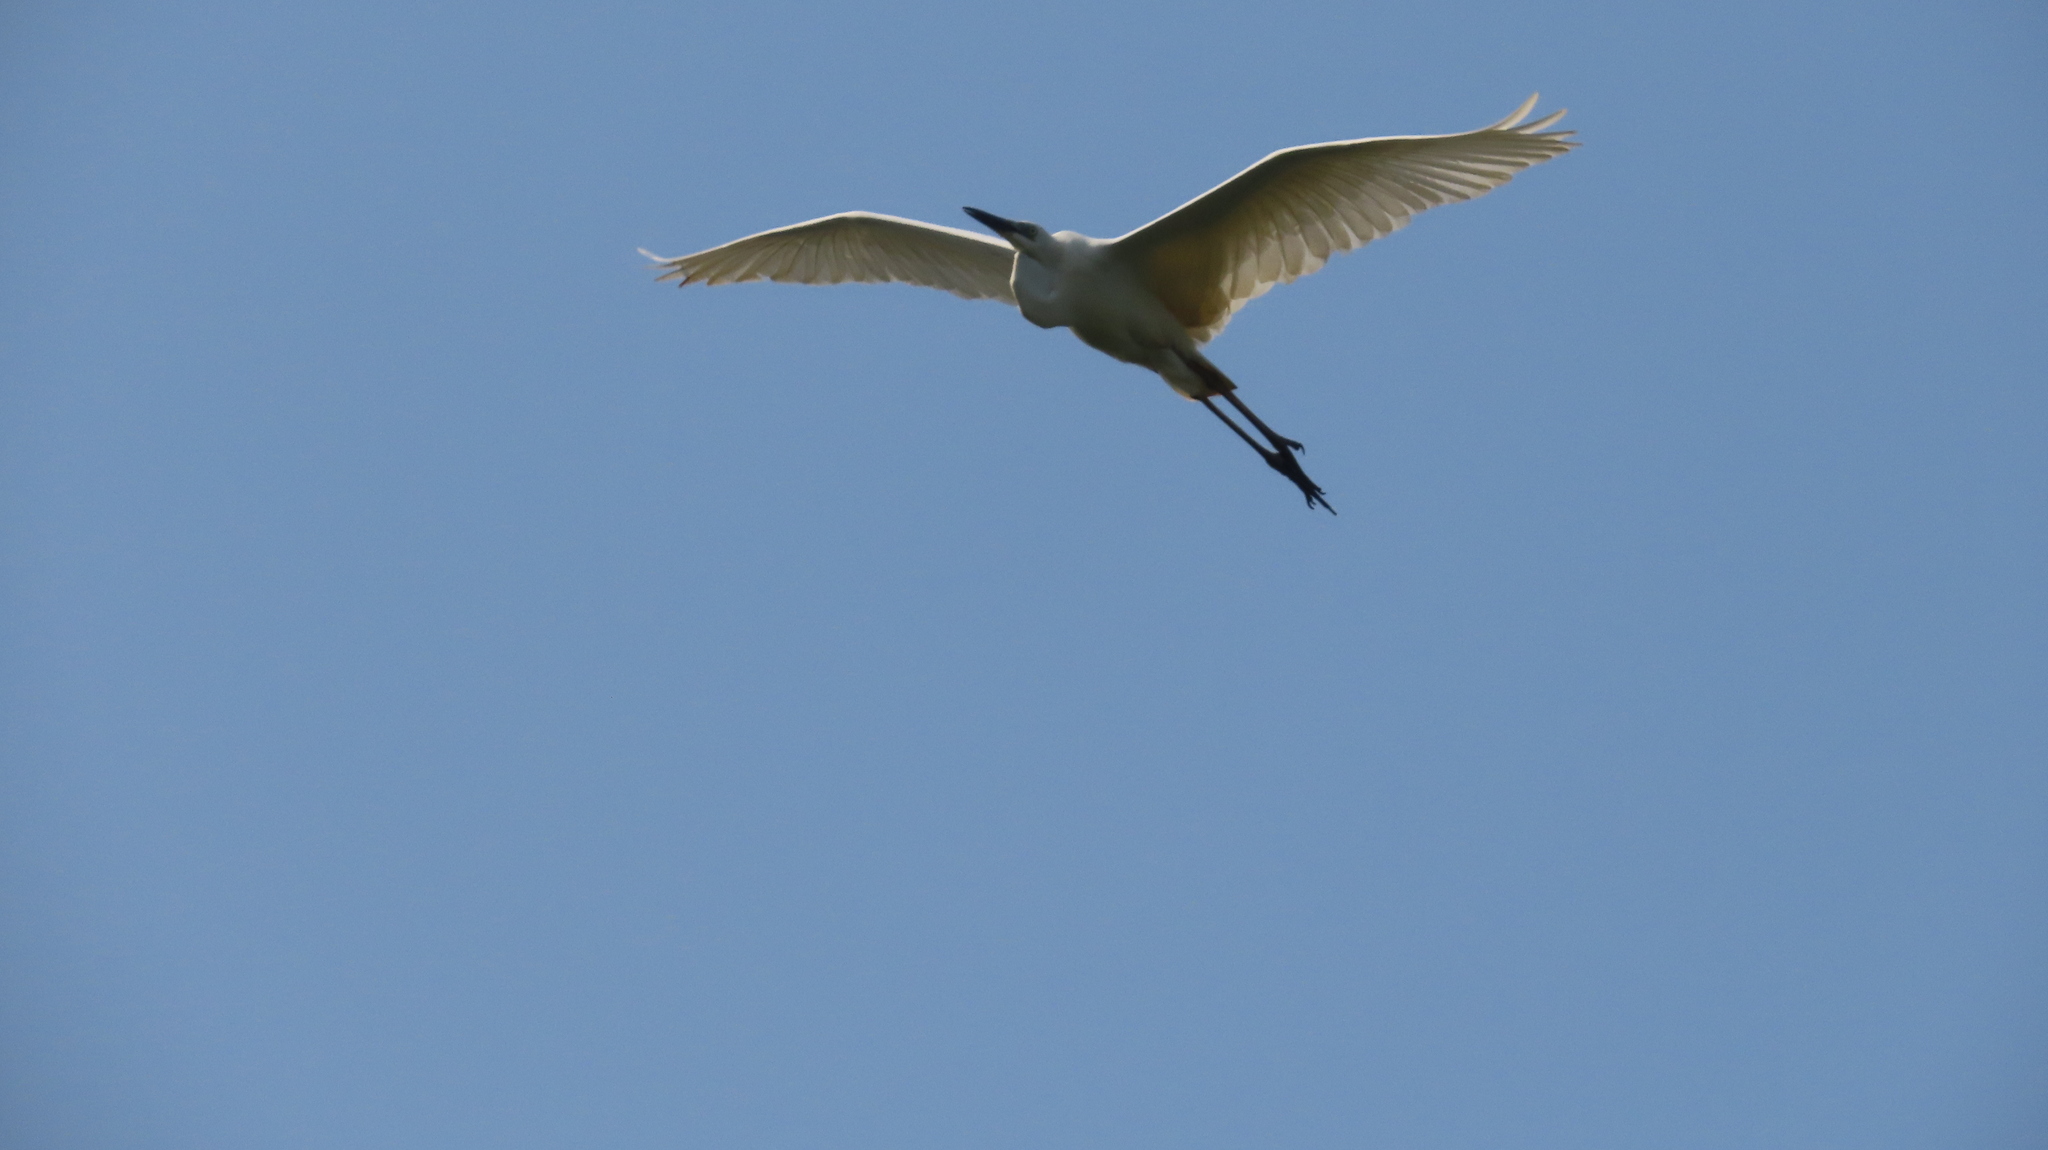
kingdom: Animalia
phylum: Chordata
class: Aves
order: Pelecaniformes
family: Ardeidae
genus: Ardea
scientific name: Ardea alba
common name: Great egret
